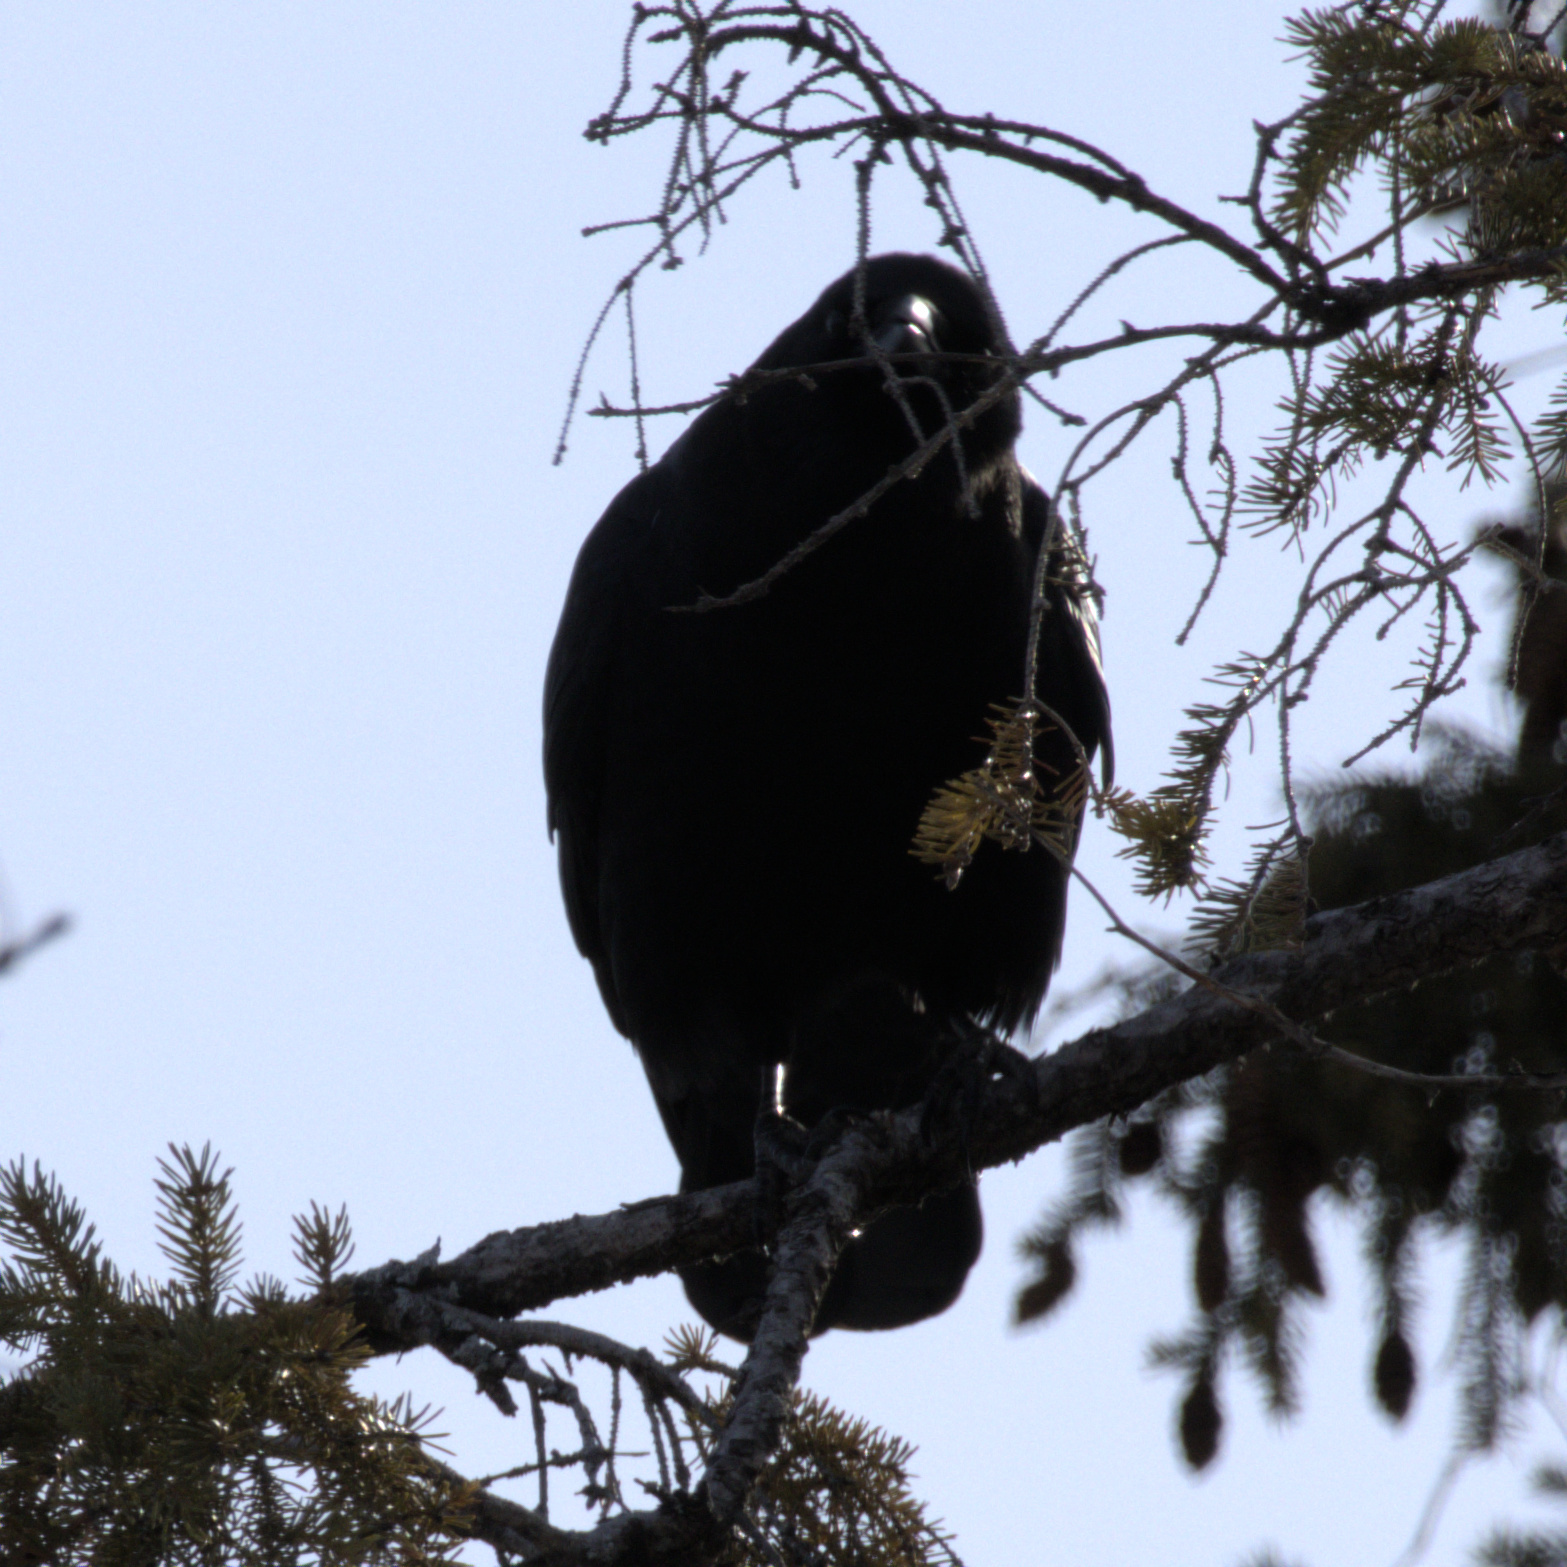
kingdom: Animalia
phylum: Chordata
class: Aves
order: Passeriformes
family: Corvidae
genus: Corvus
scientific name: Corvus brachyrhynchos
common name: American crow
